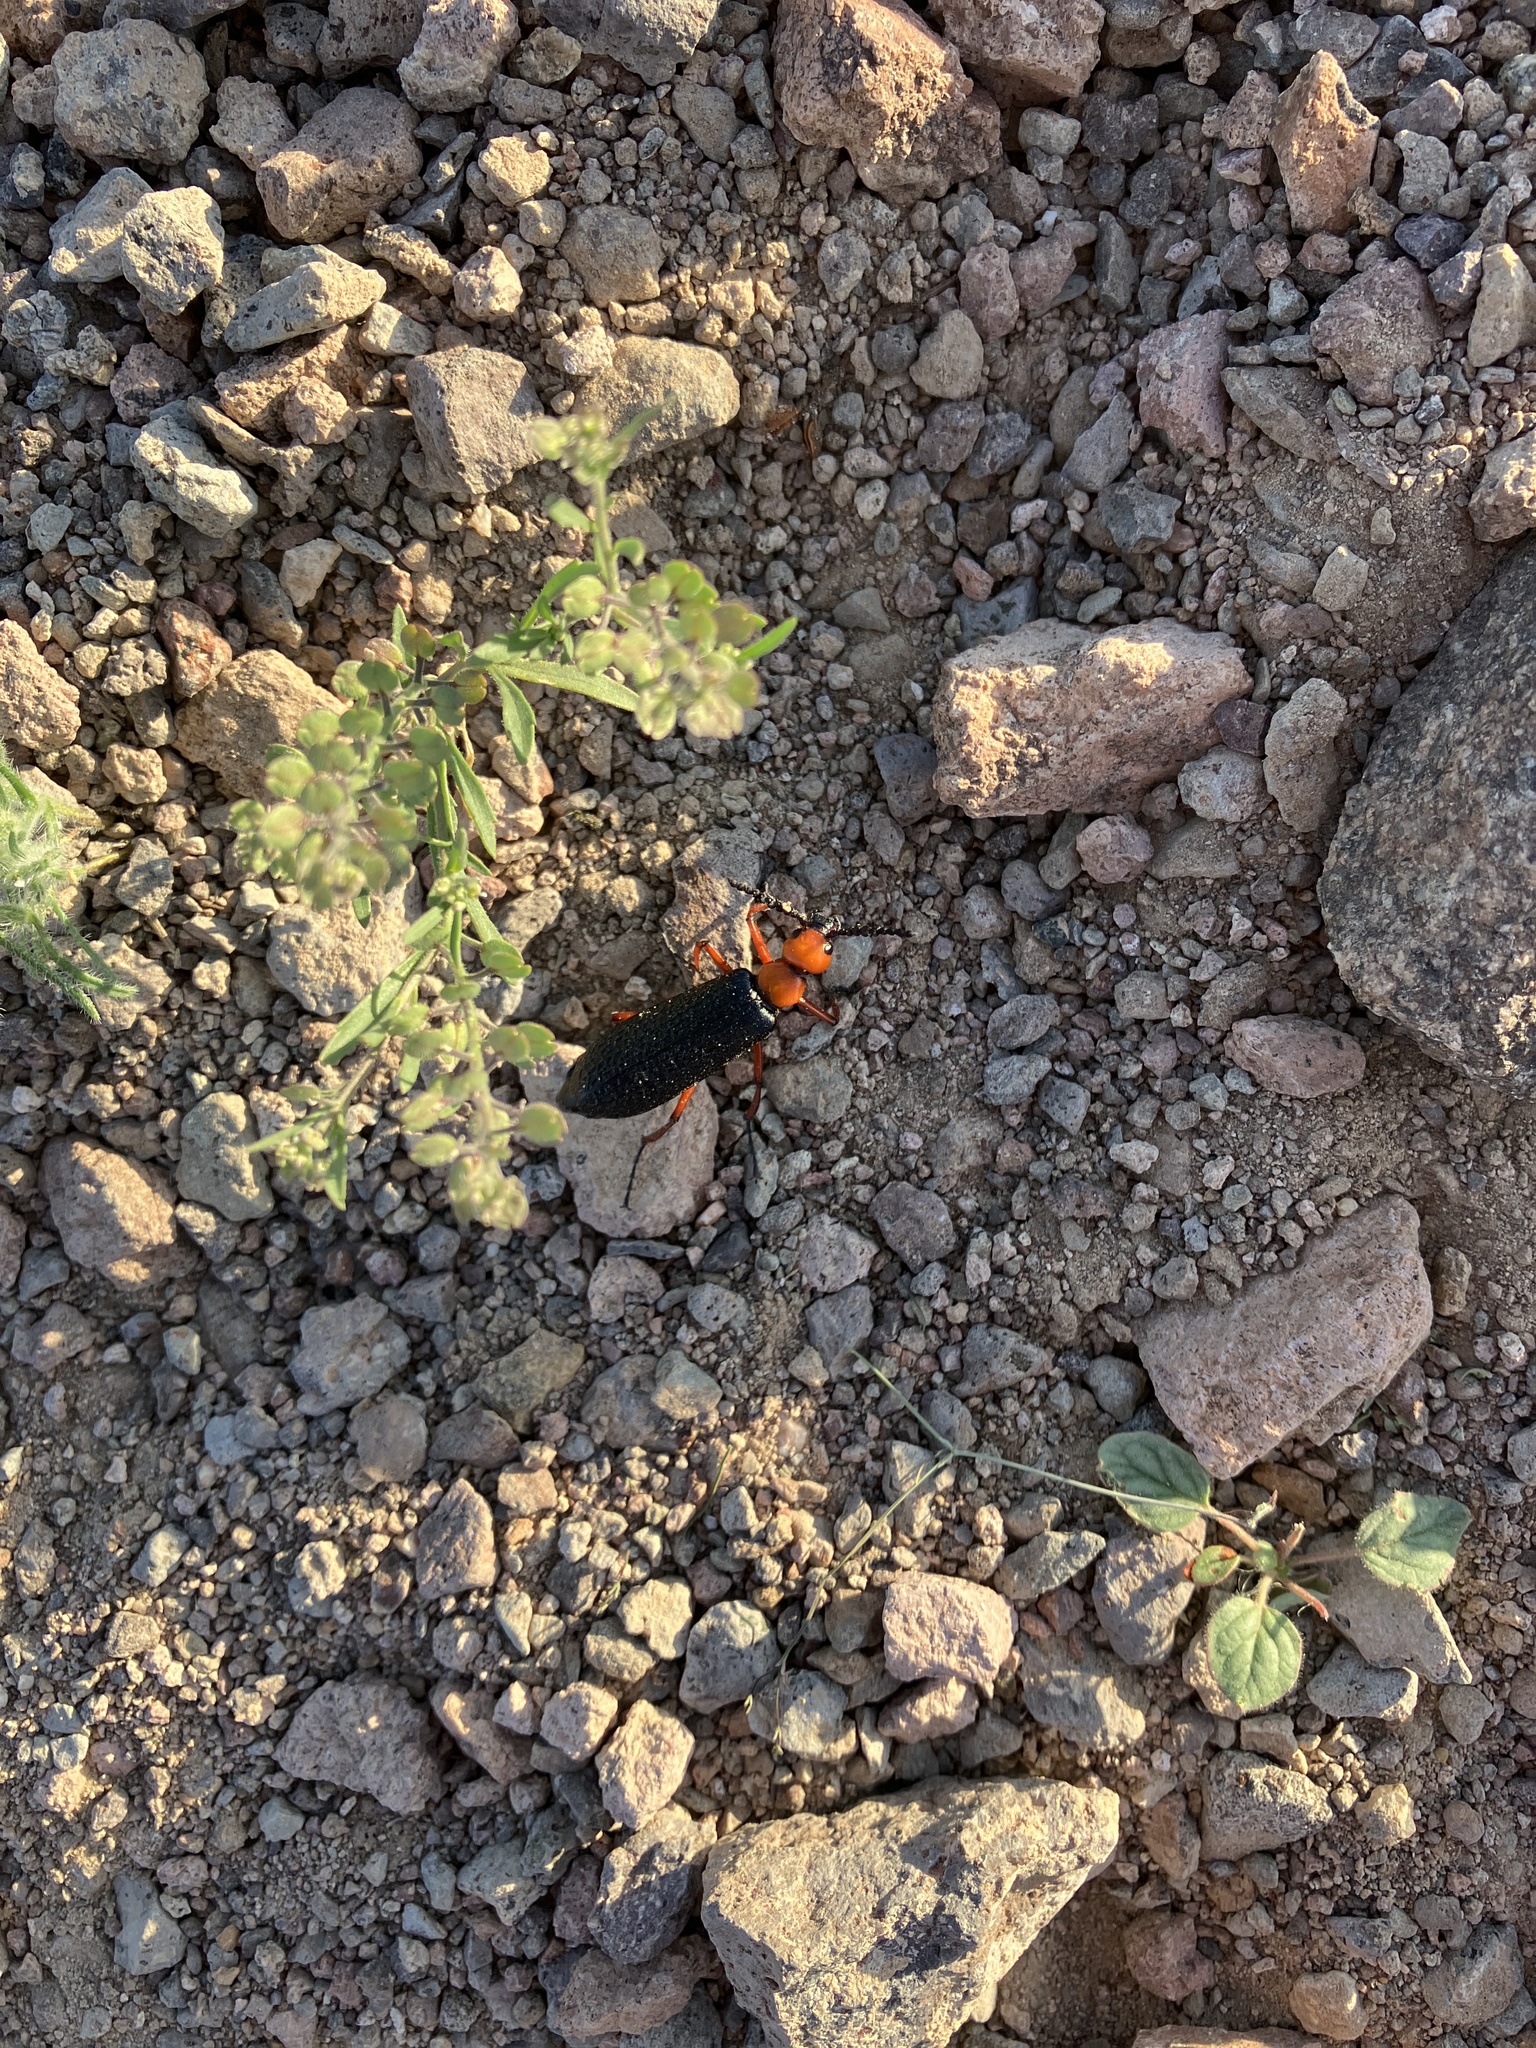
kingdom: Animalia
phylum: Arthropoda
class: Insecta
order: Coleoptera
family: Meloidae
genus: Lytta
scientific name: Lytta magister
